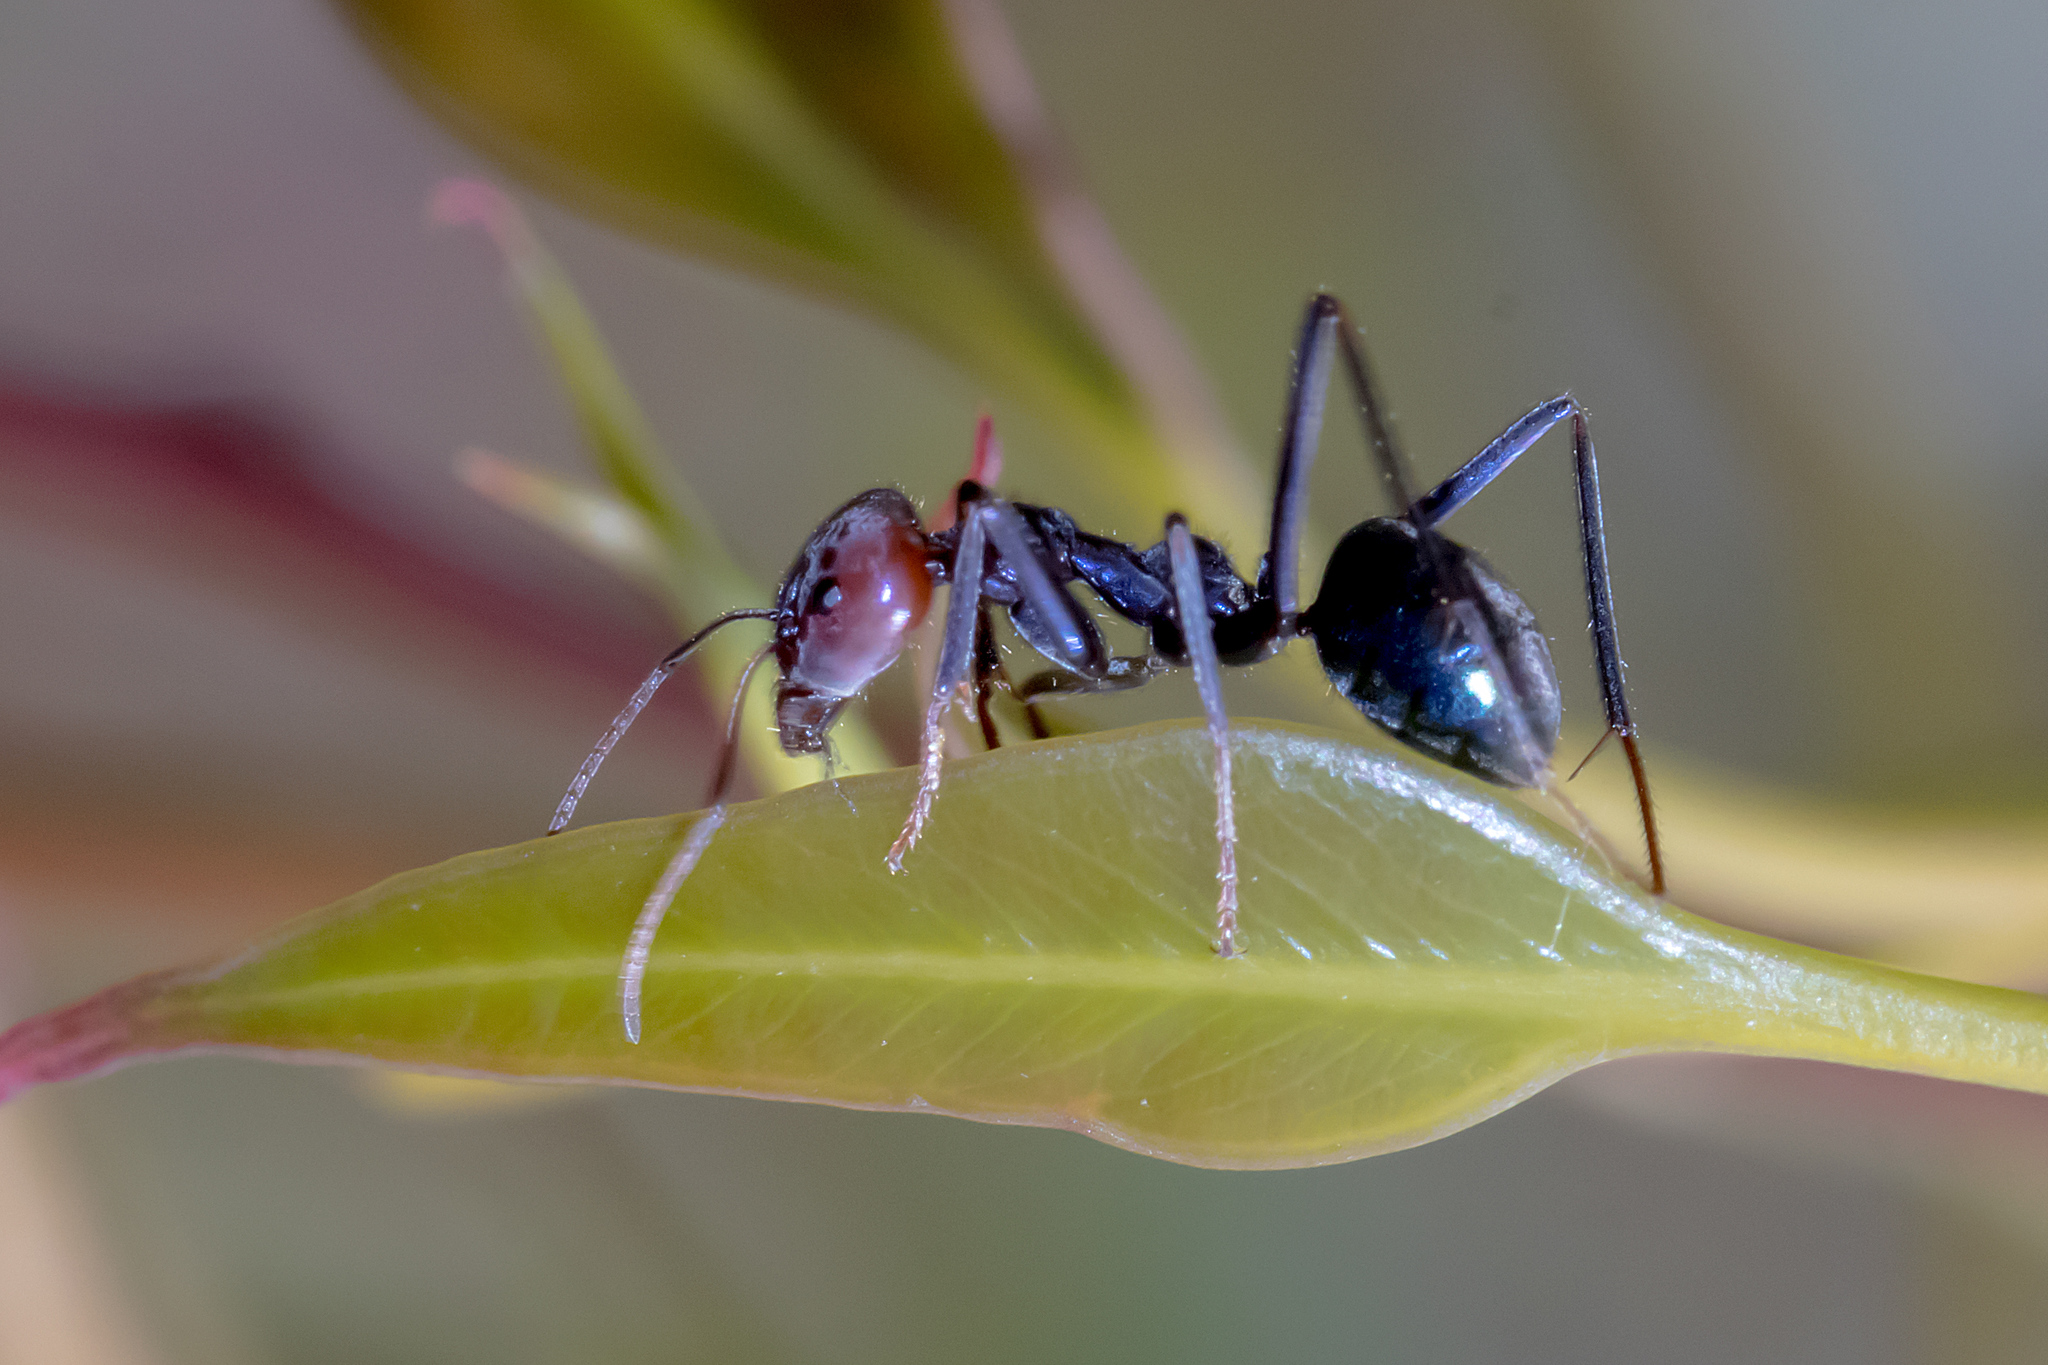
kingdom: Animalia
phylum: Arthropoda
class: Insecta
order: Hymenoptera
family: Formicidae
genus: Iridomyrmex
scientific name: Iridomyrmex purpureus
